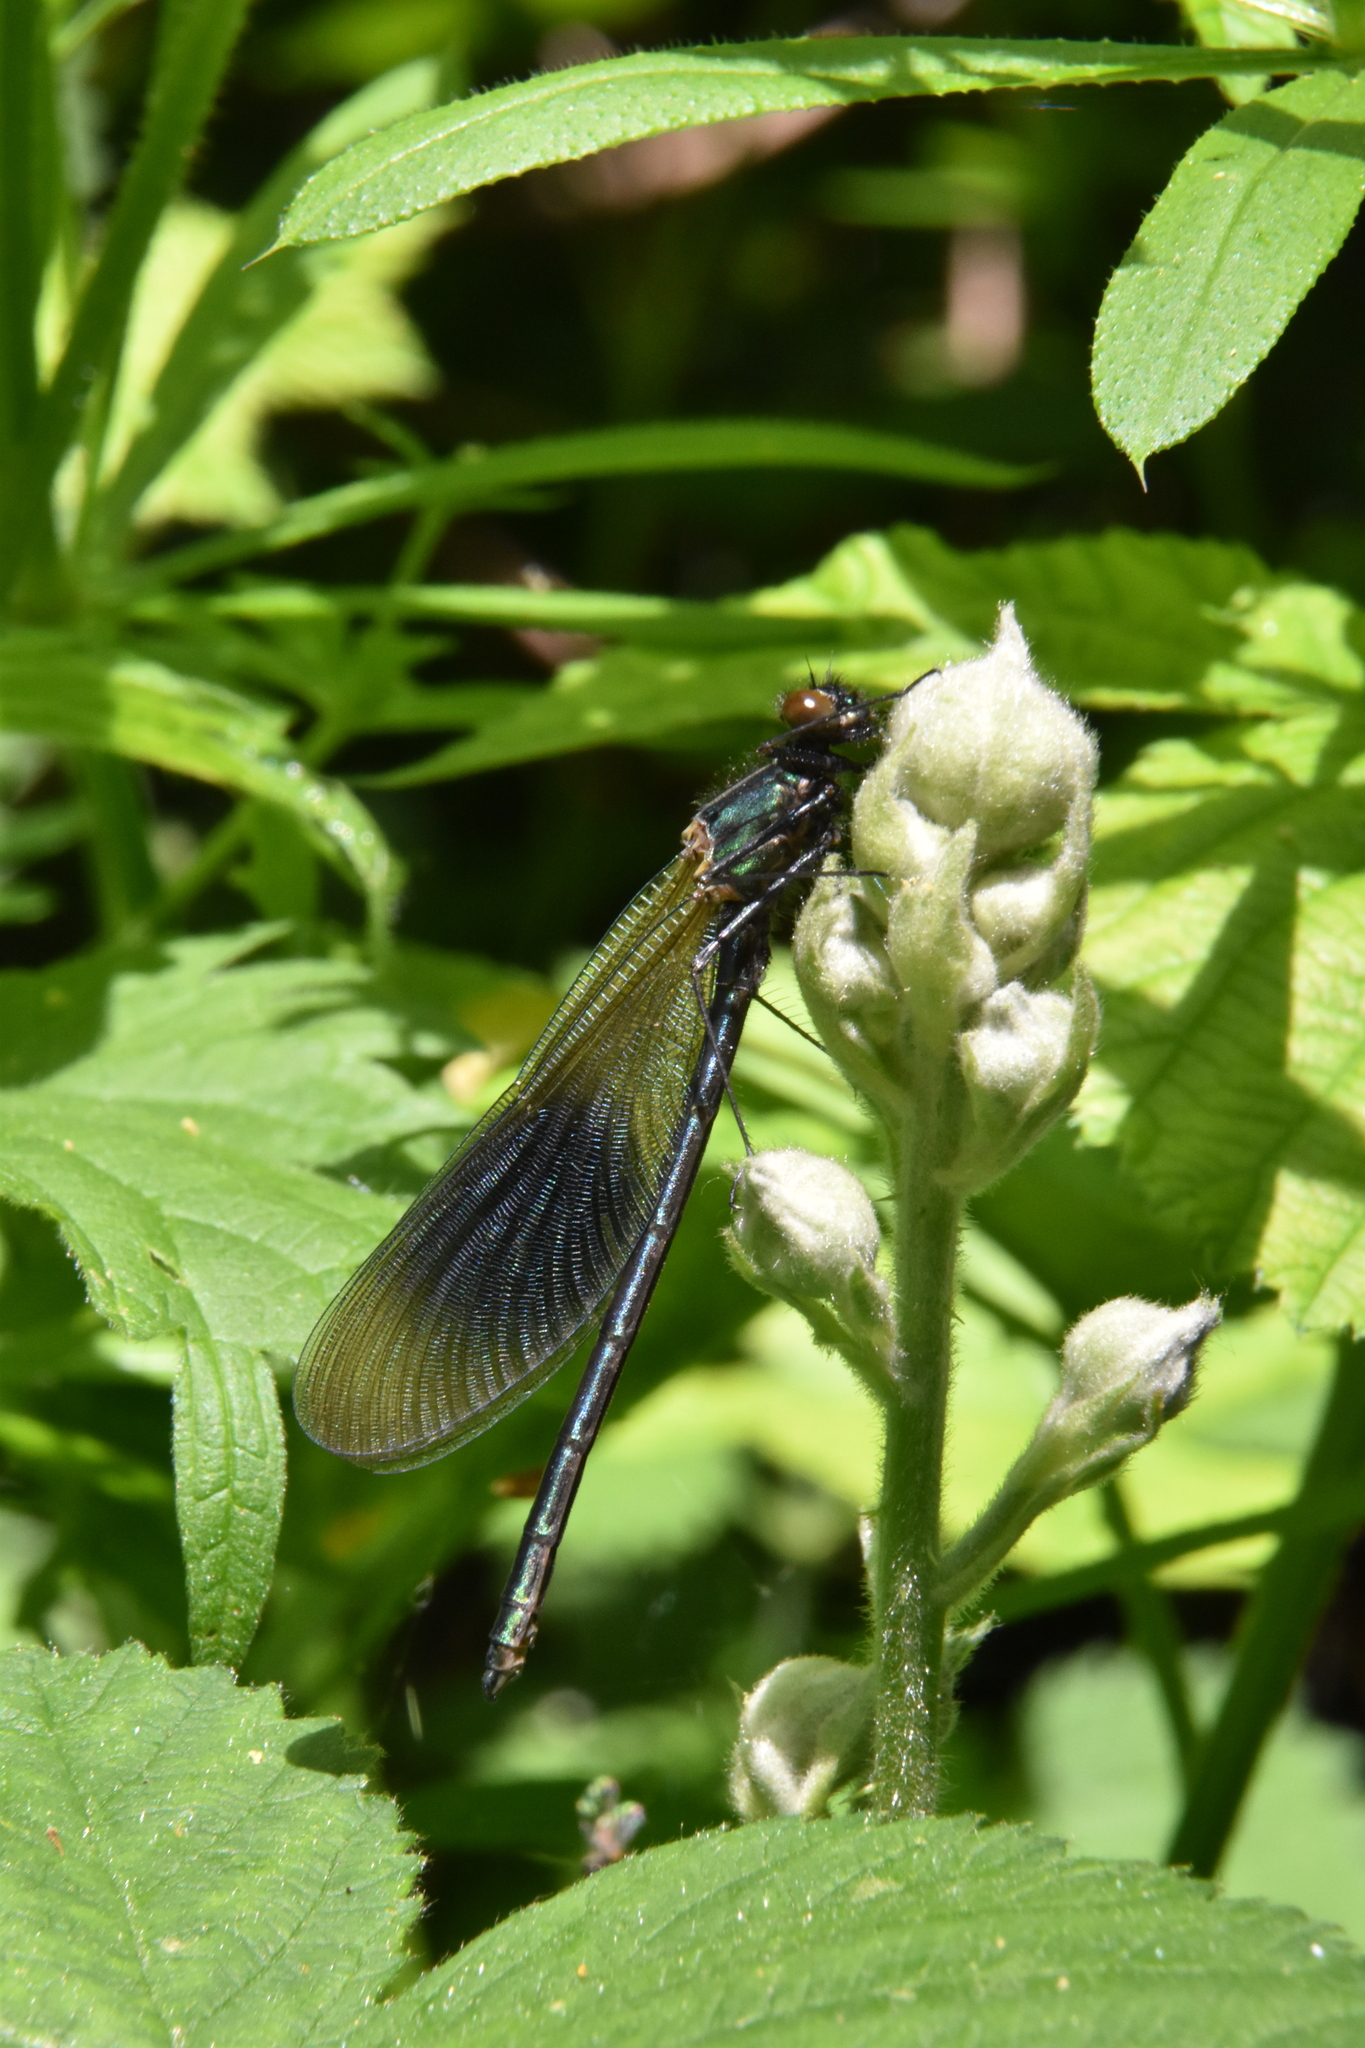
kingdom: Animalia
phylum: Arthropoda
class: Insecta
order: Odonata
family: Calopterygidae
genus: Calopteryx
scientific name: Calopteryx splendens
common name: Banded demoiselle
